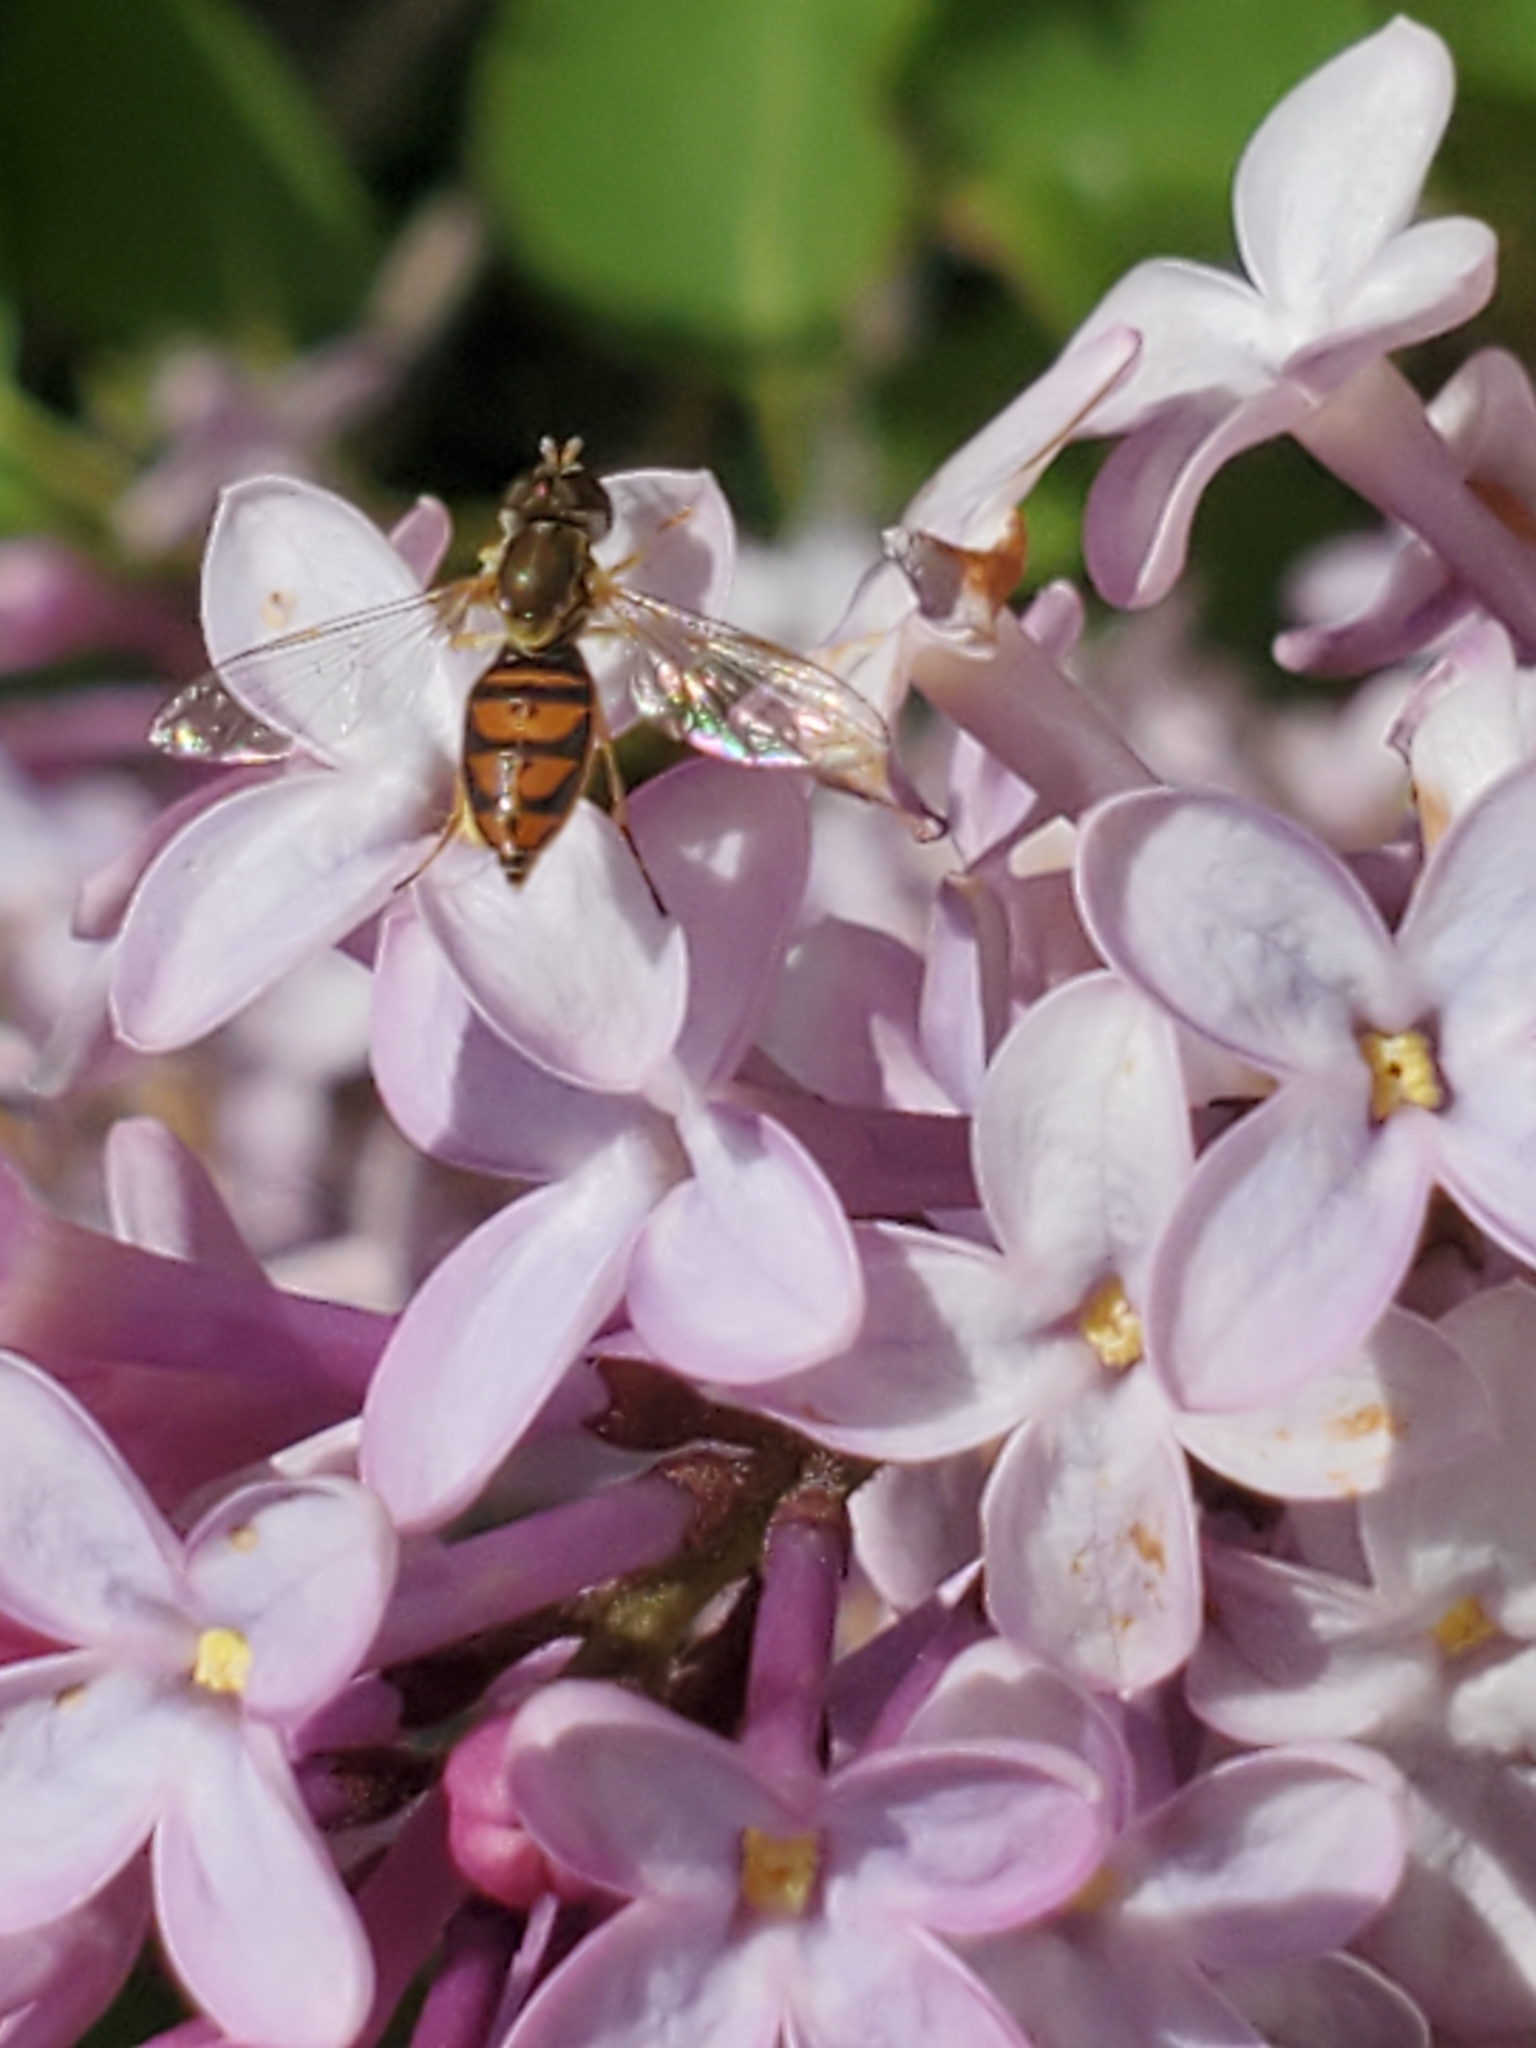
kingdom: Animalia
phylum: Arthropoda
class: Insecta
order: Diptera
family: Syrphidae
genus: Toxomerus
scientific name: Toxomerus marginatus
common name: Syrphid fly
